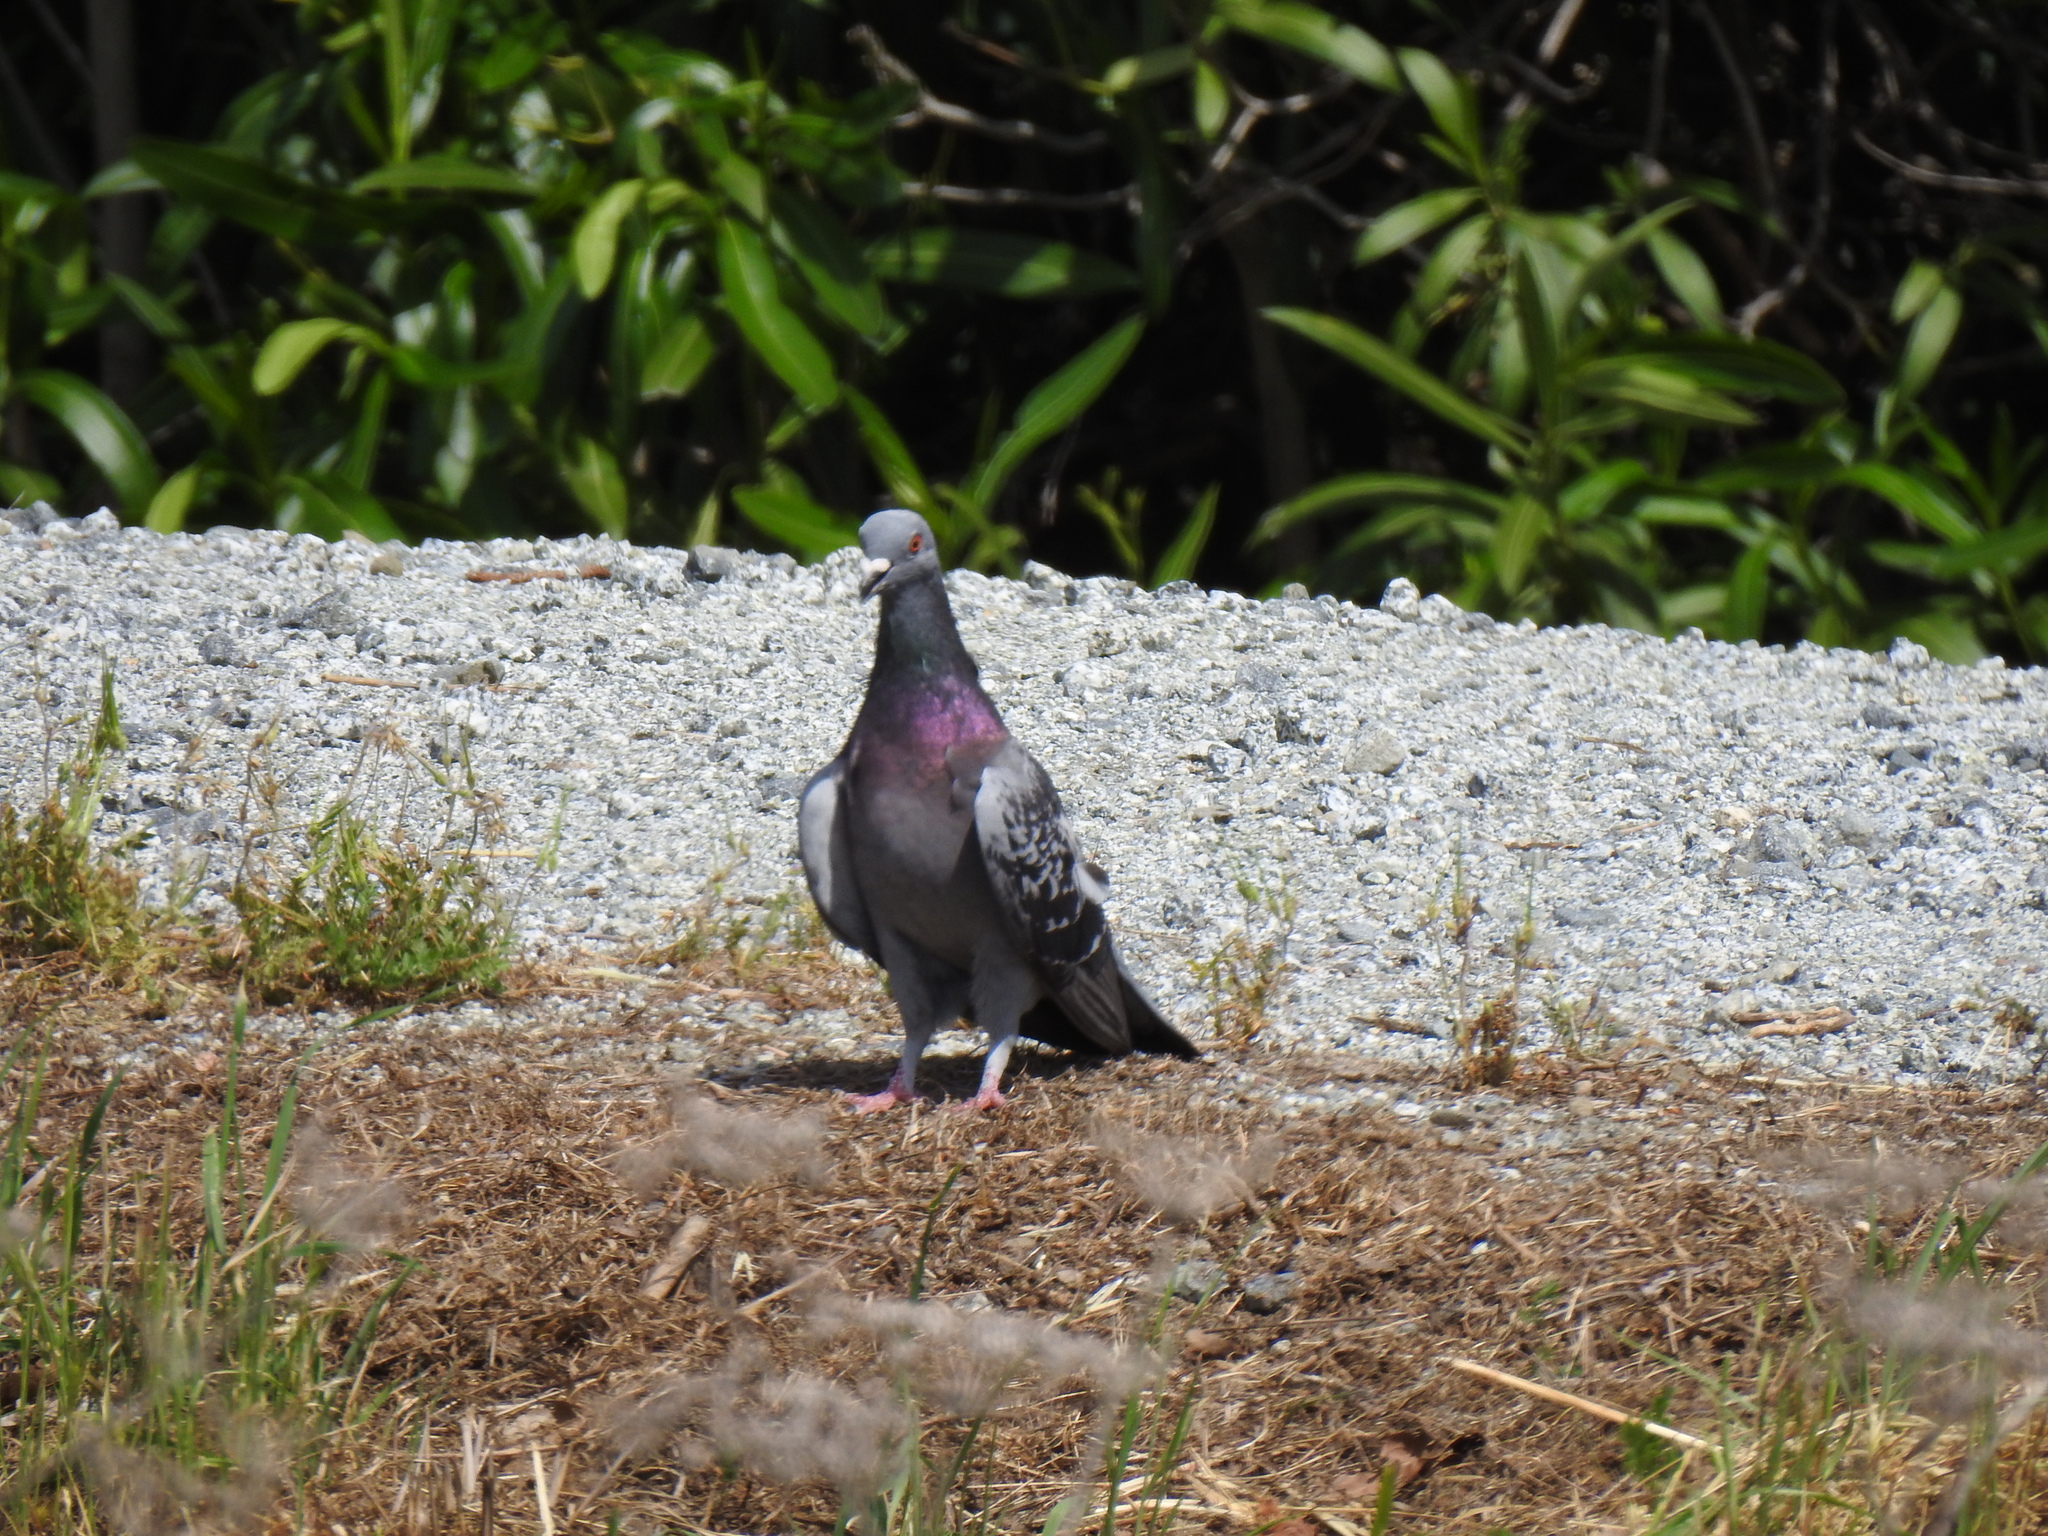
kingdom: Animalia
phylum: Chordata
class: Aves
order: Columbiformes
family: Columbidae
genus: Columba
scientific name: Columba livia
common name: Rock pigeon
